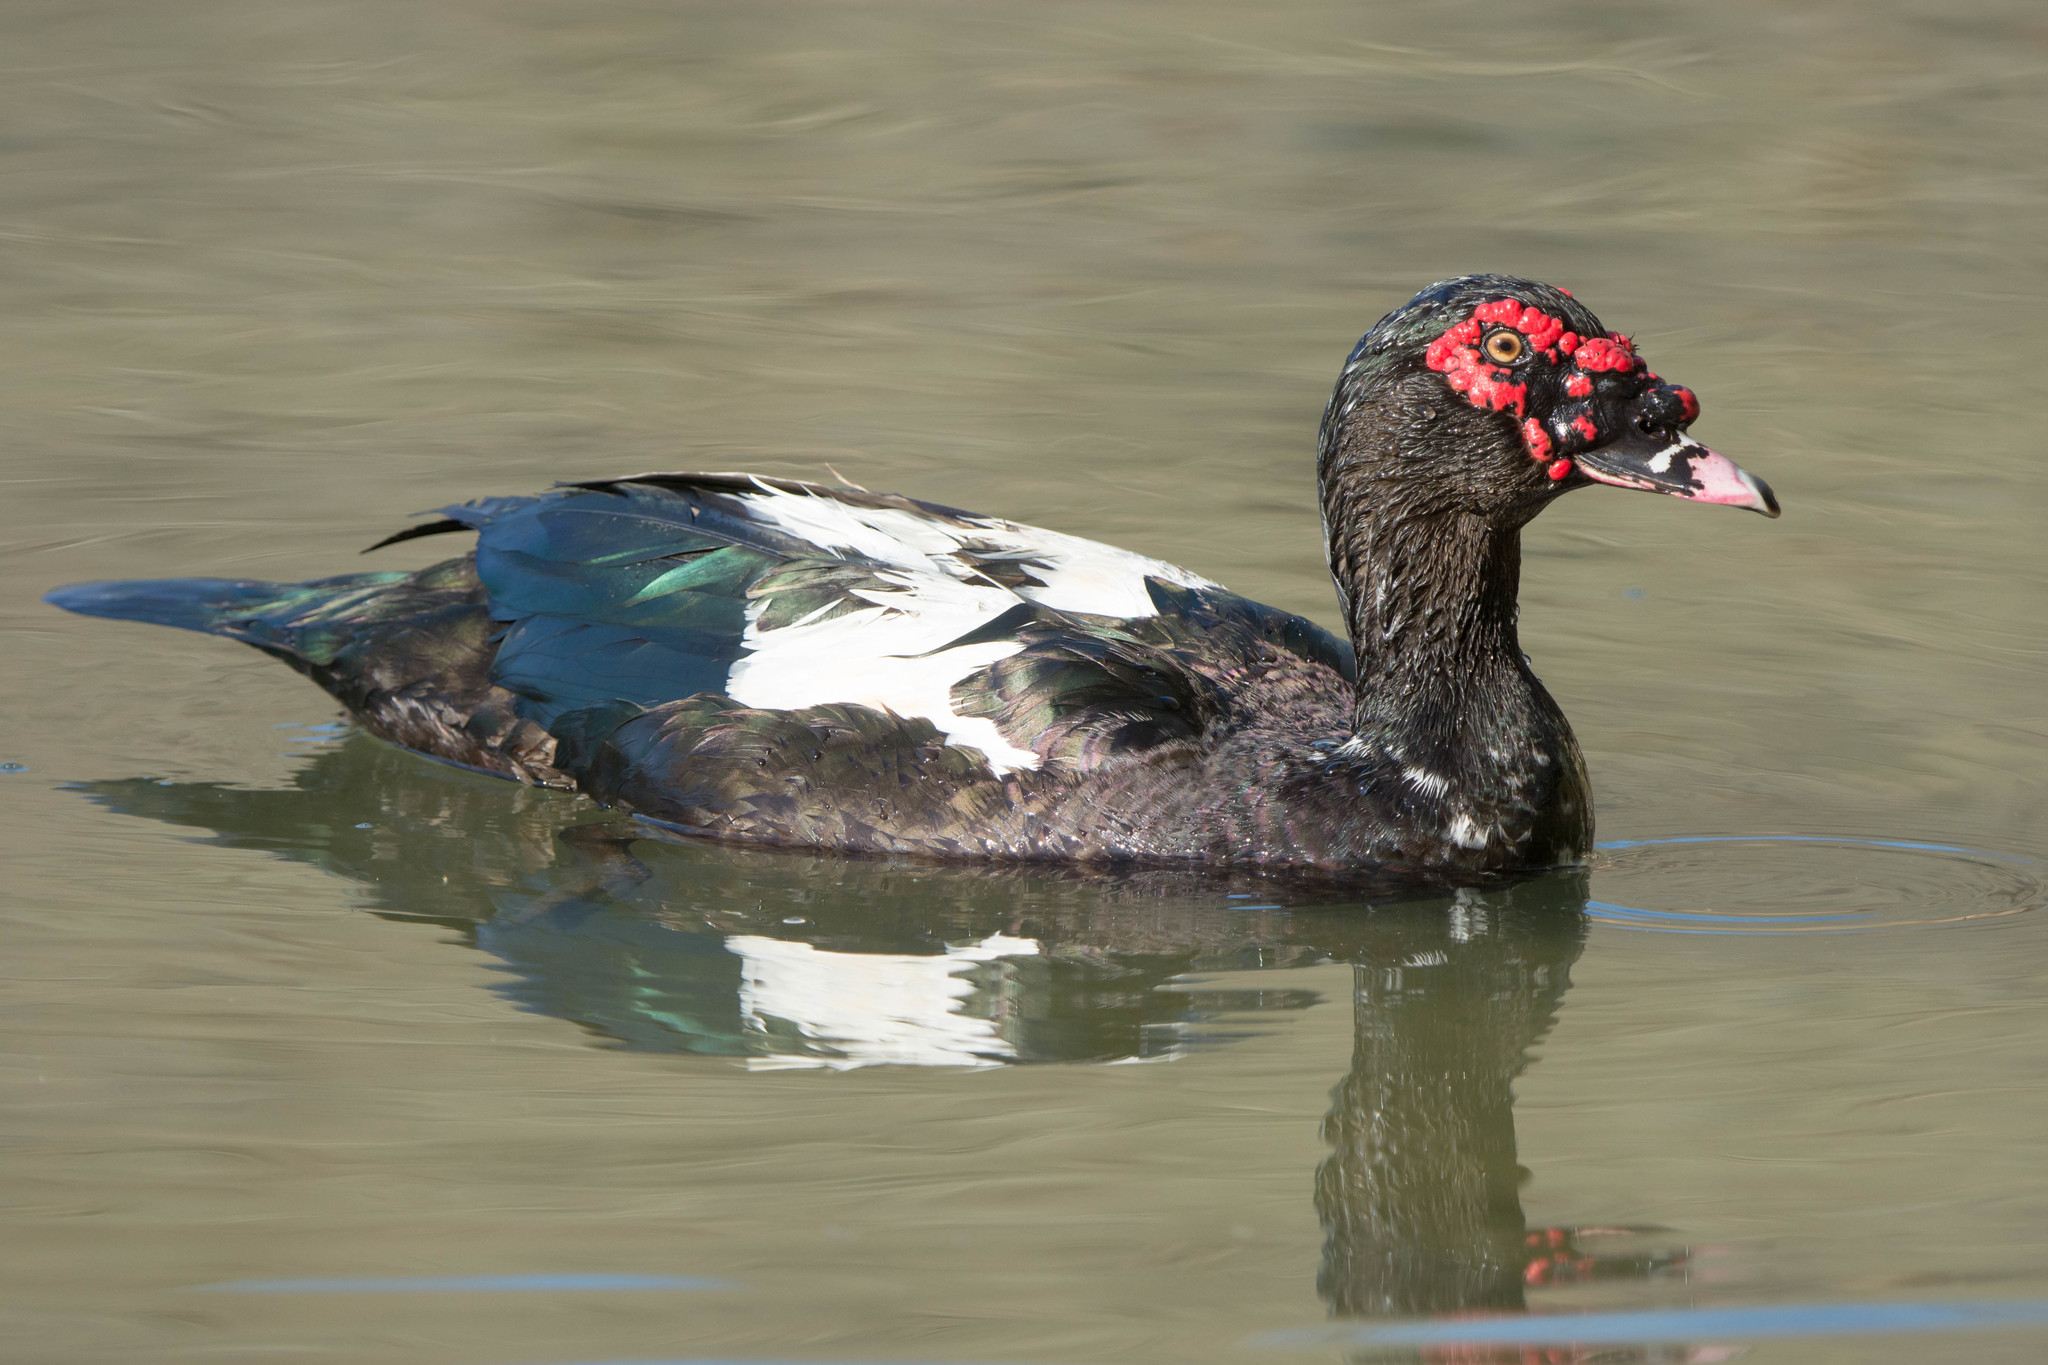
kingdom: Animalia
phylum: Chordata
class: Aves
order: Anseriformes
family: Anatidae
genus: Cairina
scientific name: Cairina moschata
